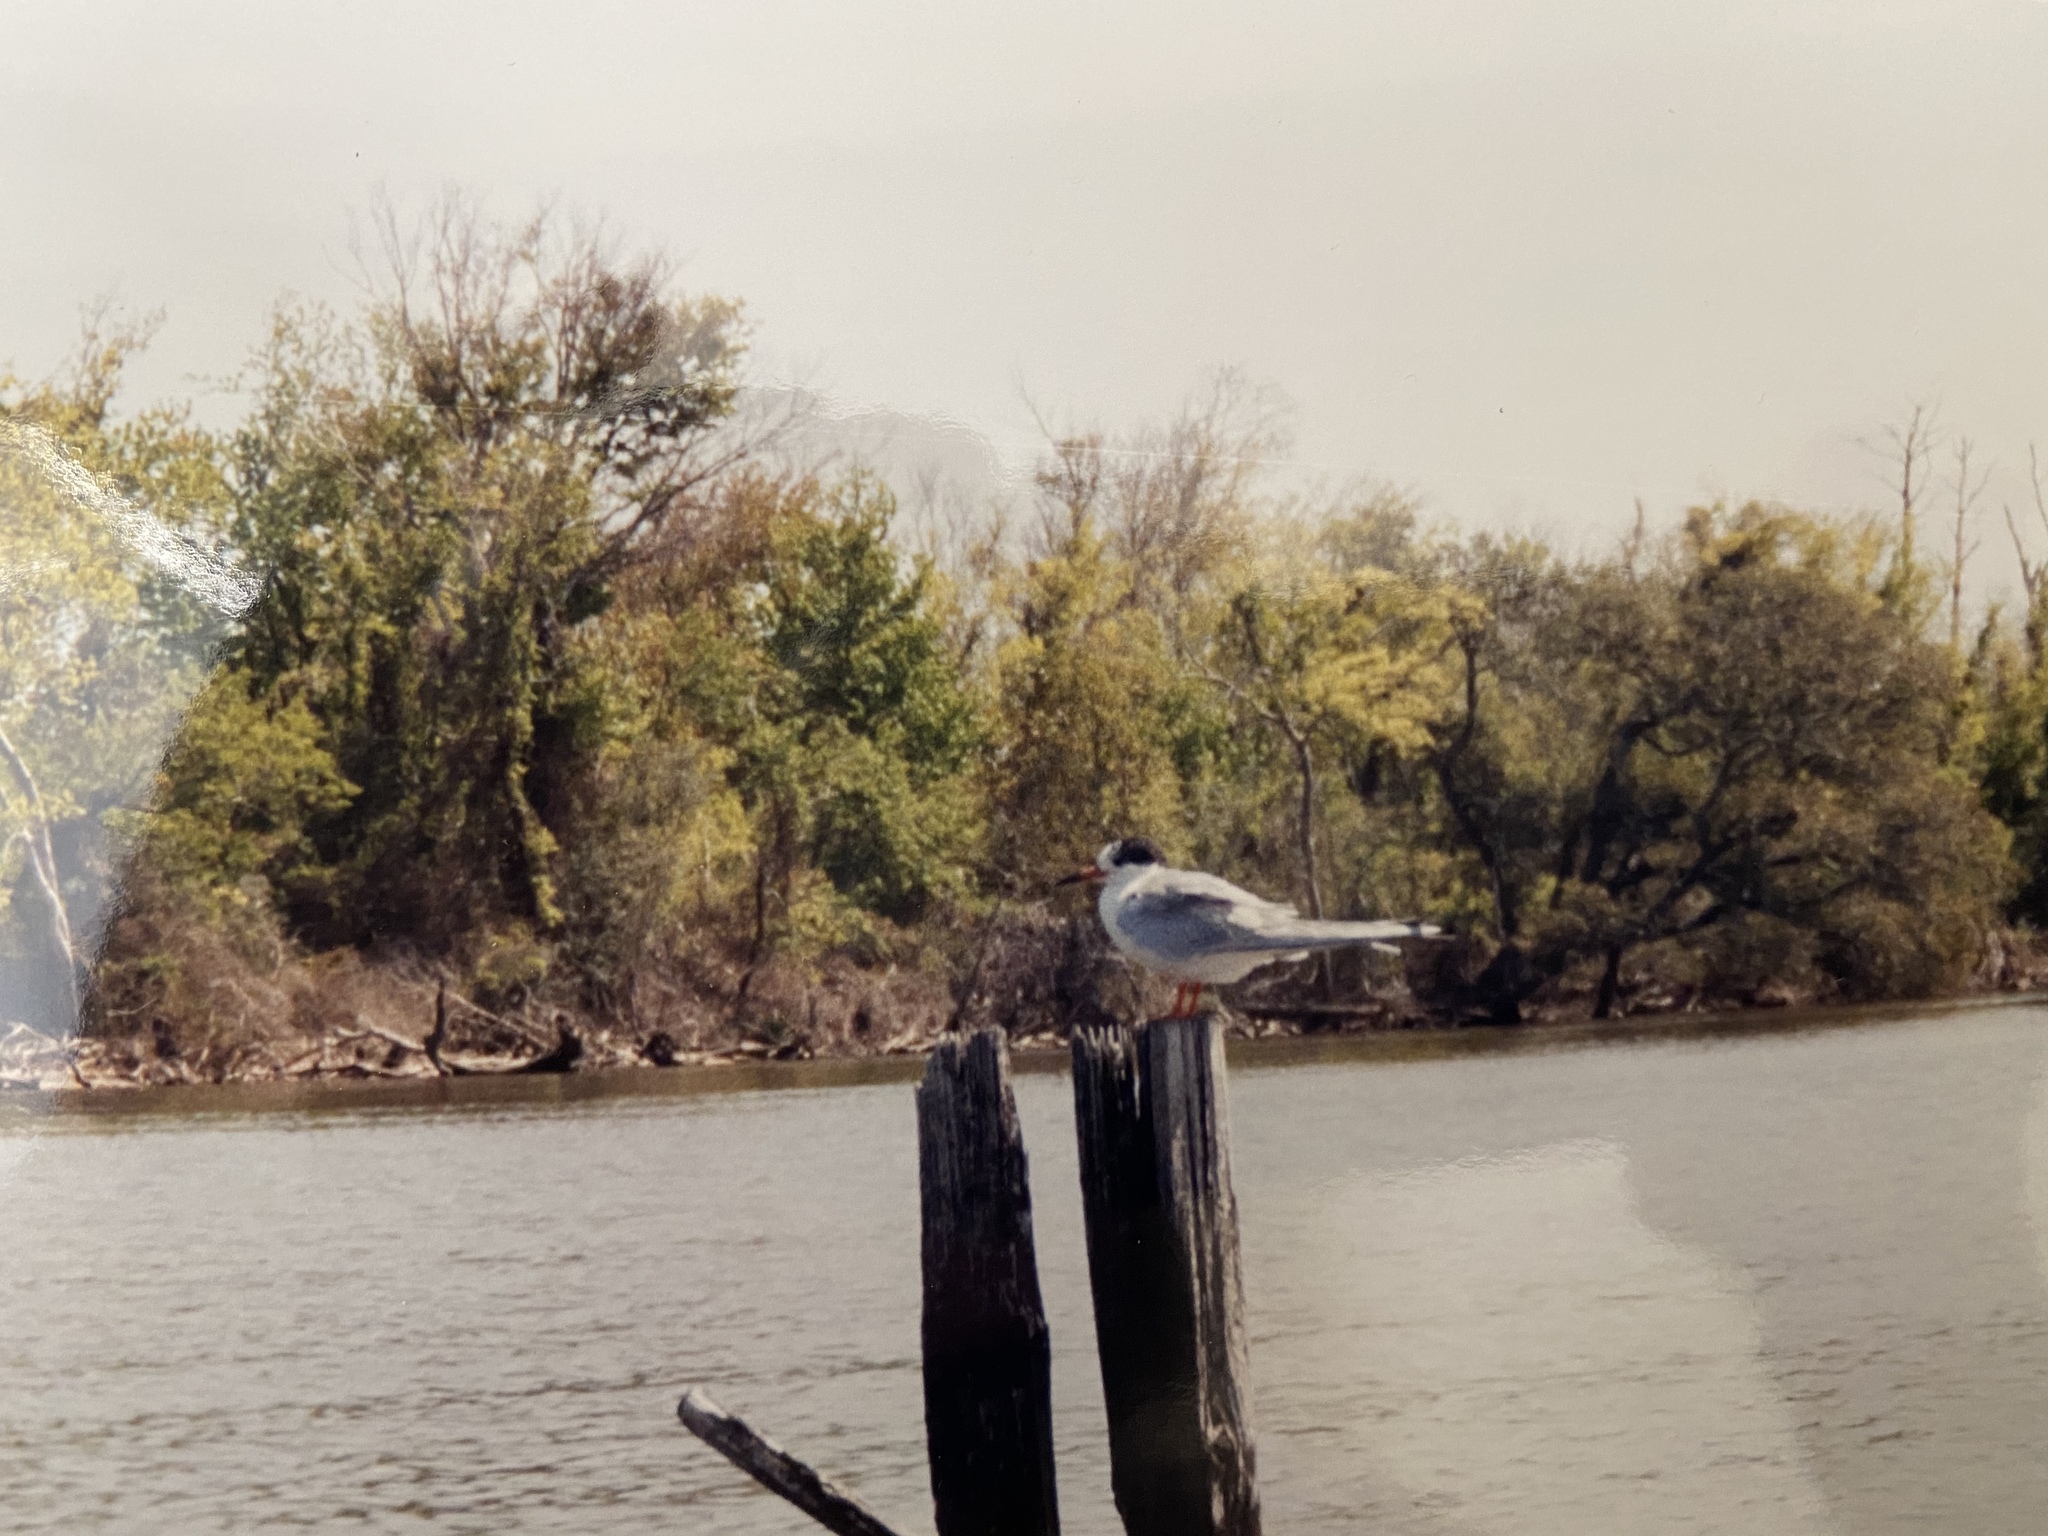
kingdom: Animalia
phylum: Chordata
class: Aves
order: Charadriiformes
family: Laridae
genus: Sterna
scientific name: Sterna hirundo
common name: Common tern
